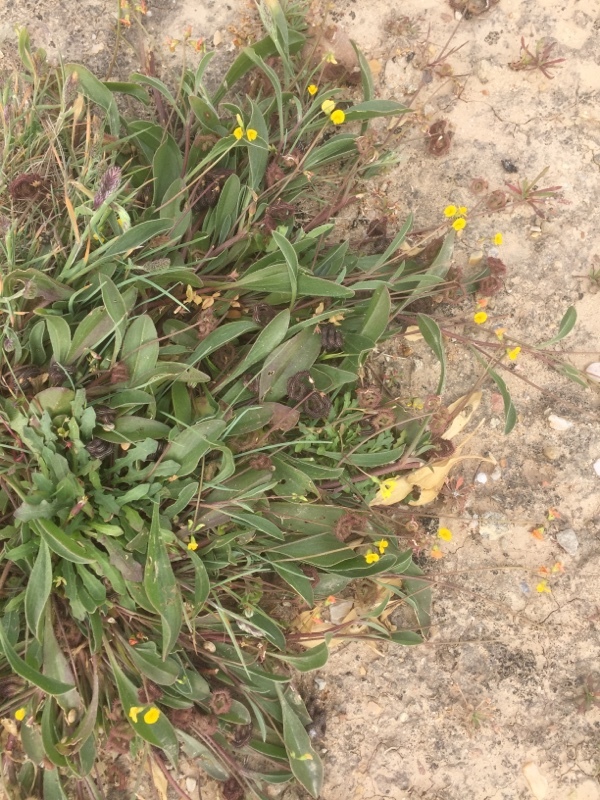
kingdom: Plantae
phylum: Tracheophyta
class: Magnoliopsida
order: Fabales
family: Fabaceae
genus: Scorpiurus
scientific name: Scorpiurus muricatus
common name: Caterpillar-plant
